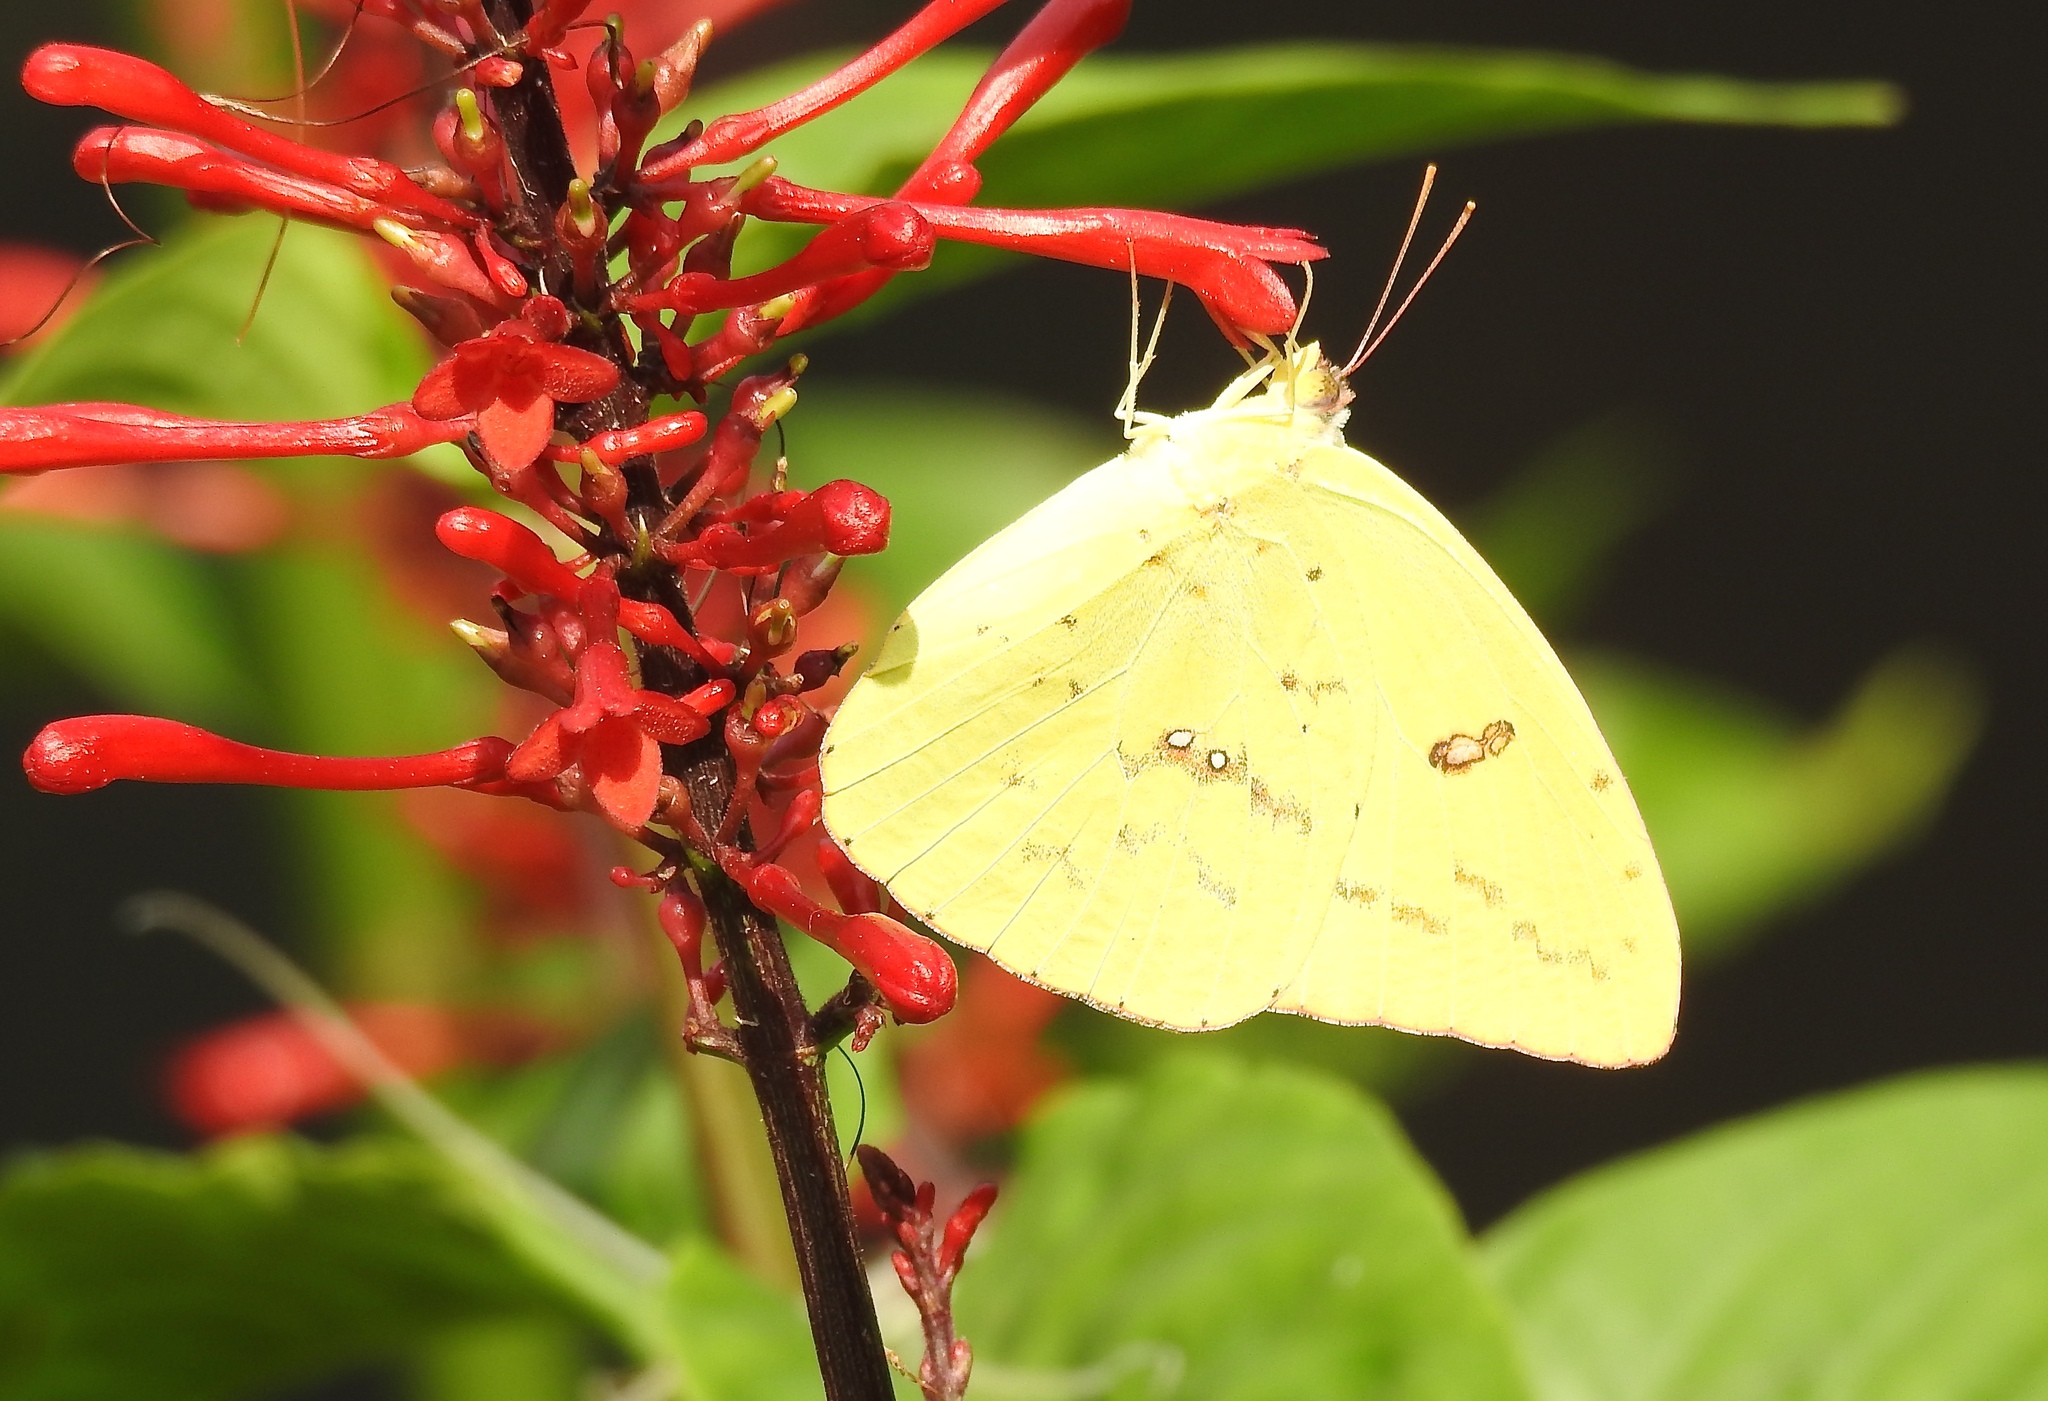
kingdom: Animalia
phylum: Arthropoda
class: Insecta
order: Lepidoptera
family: Pieridae
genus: Phoebis
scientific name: Phoebis sennae
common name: Cloudless sulphur
